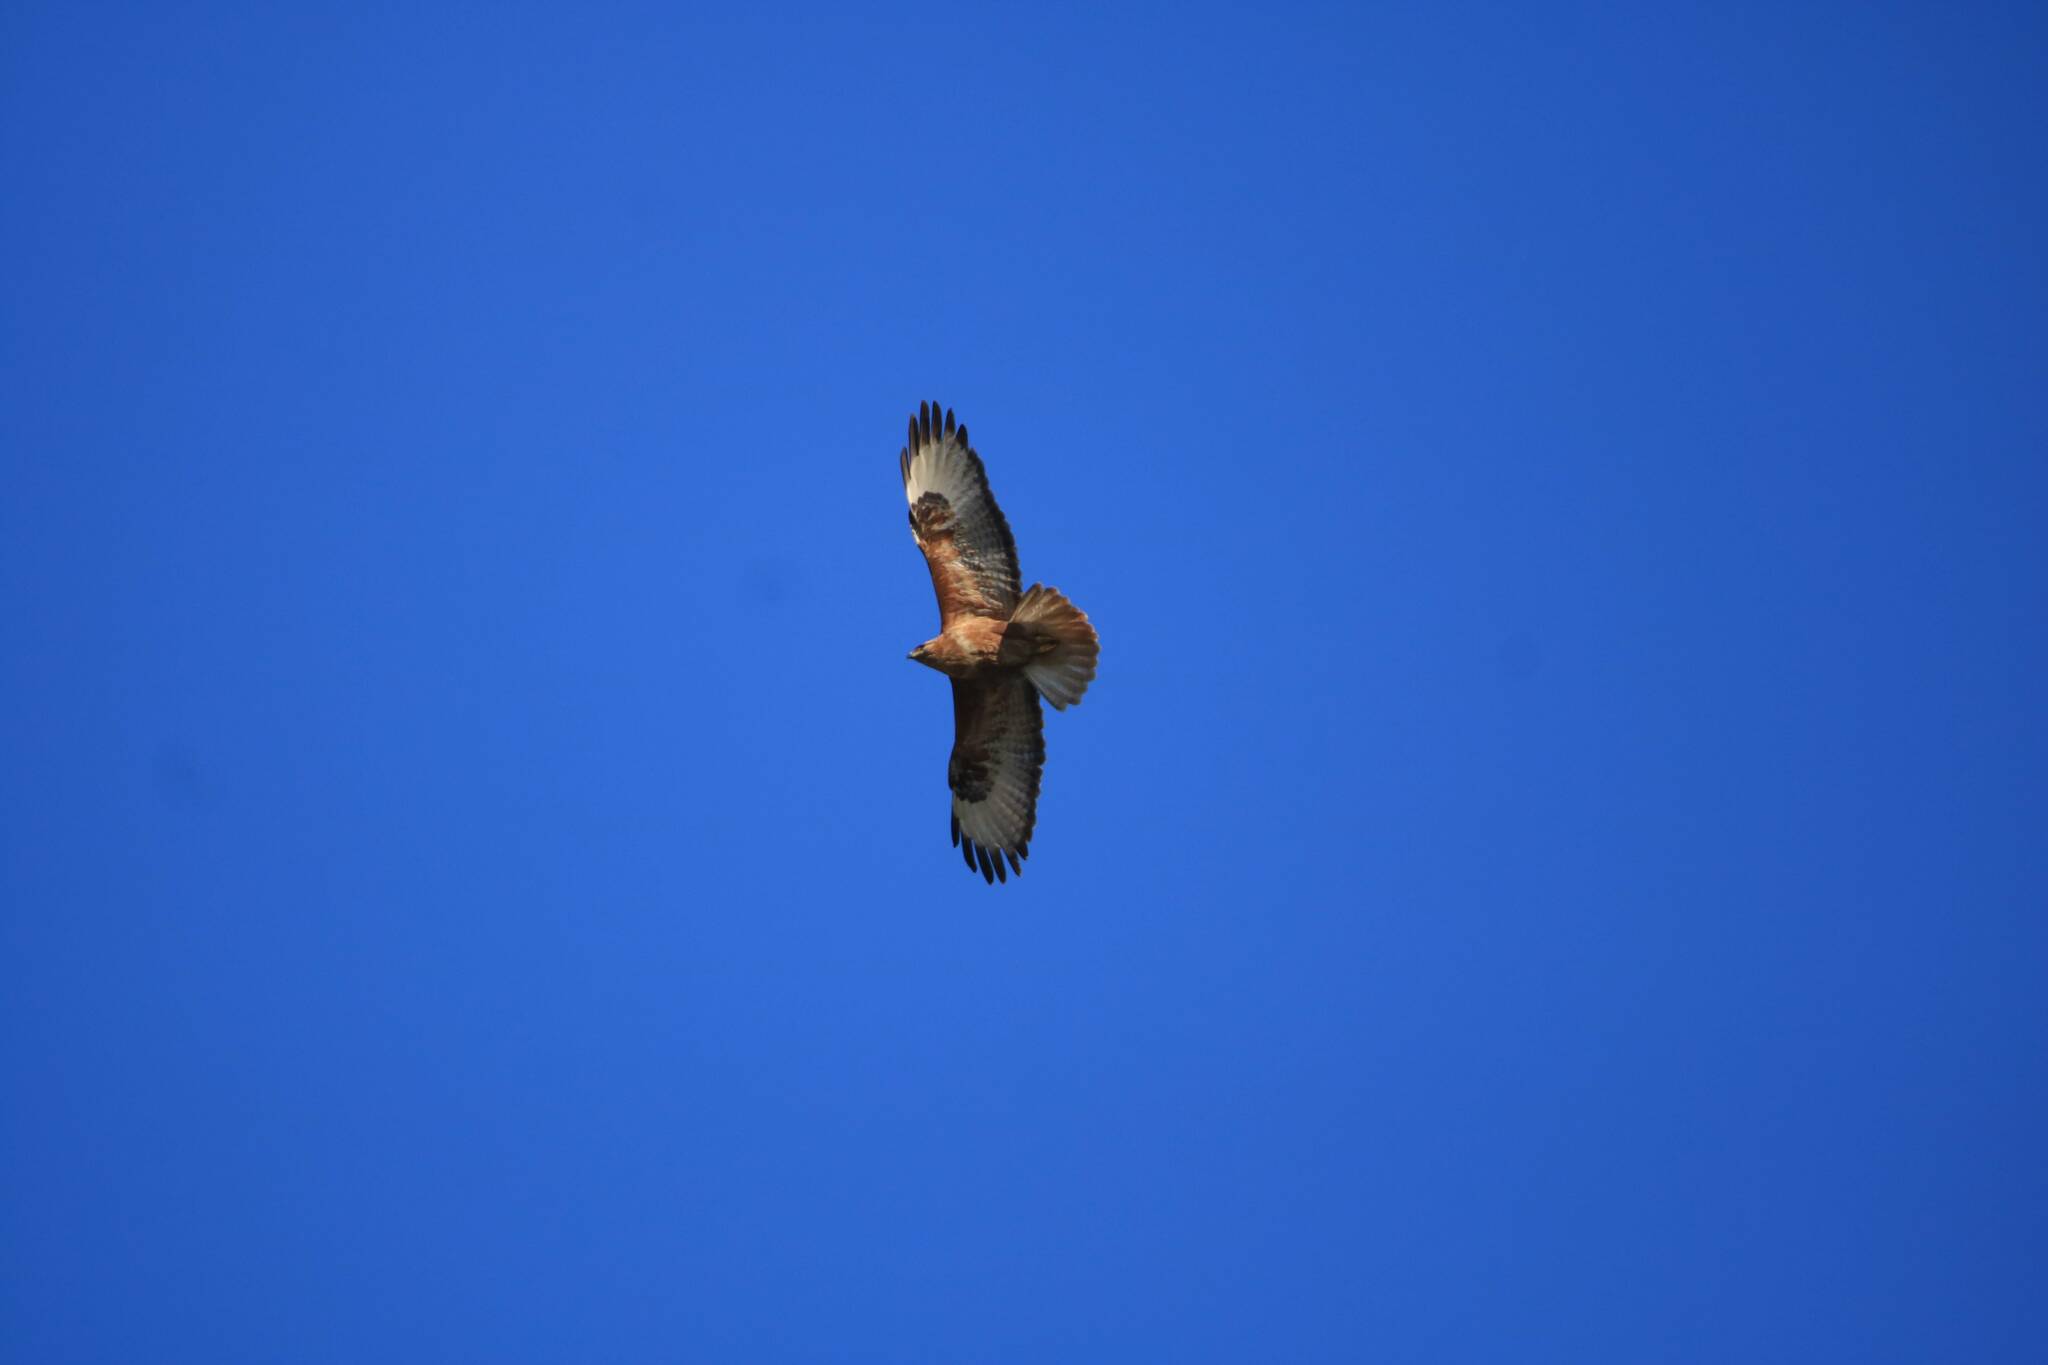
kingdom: Animalia
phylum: Chordata
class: Aves
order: Accipitriformes
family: Accipitridae
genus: Buteo
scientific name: Buteo rufinus
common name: Long-legged buzzard
